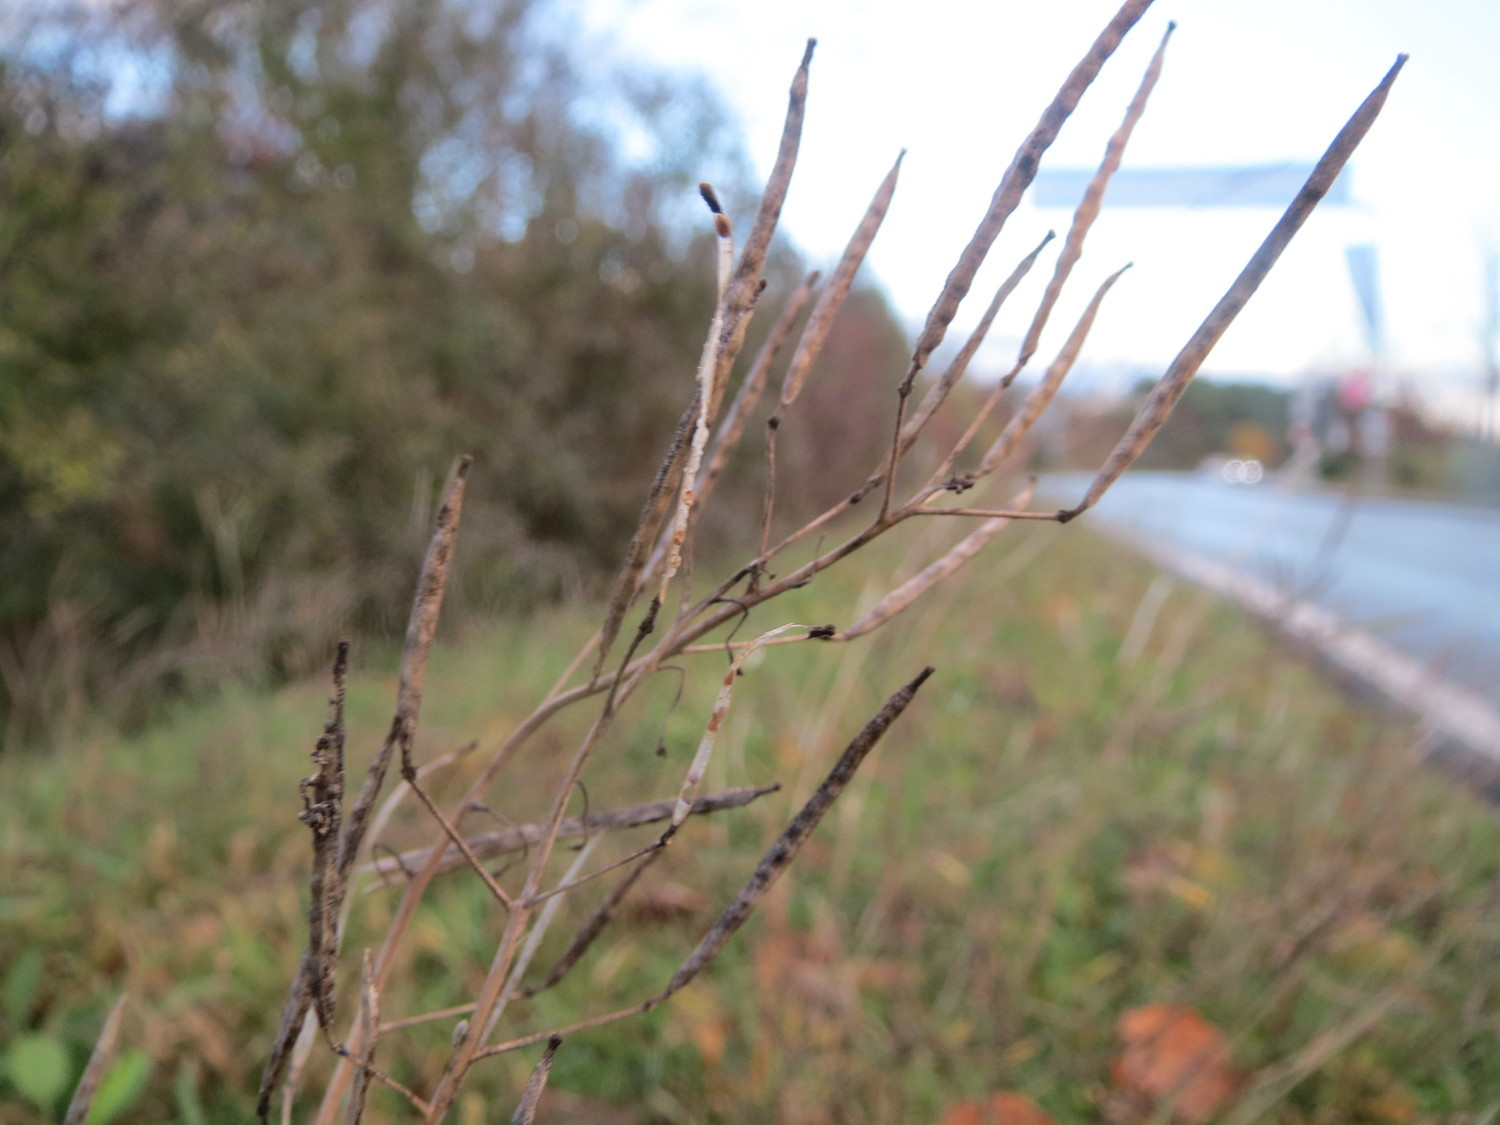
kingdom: Plantae
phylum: Tracheophyta
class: Magnoliopsida
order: Brassicales
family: Brassicaceae
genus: Diplotaxis
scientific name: Diplotaxis tenuifolia
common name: Perennial wall-rocket
